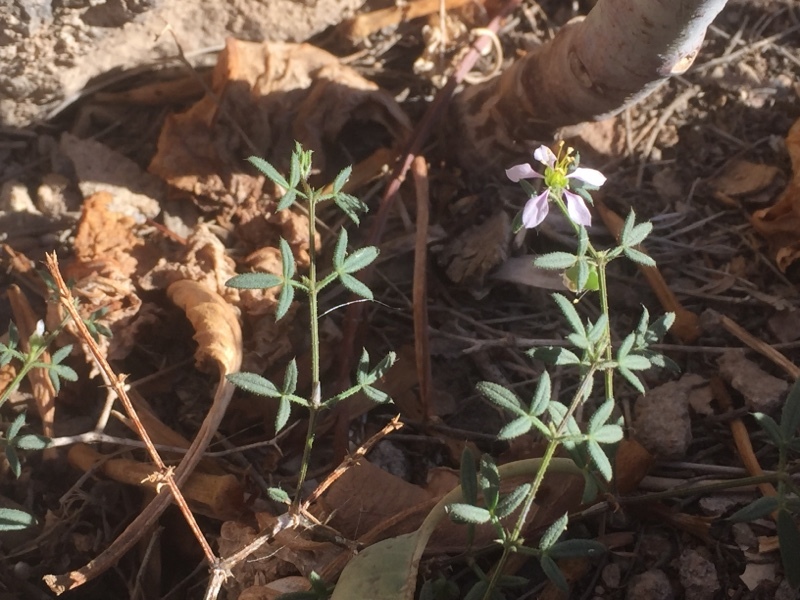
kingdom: Plantae
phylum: Tracheophyta
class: Magnoliopsida
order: Zygophyllales
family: Zygophyllaceae
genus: Fagonia
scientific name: Fagonia cretica
